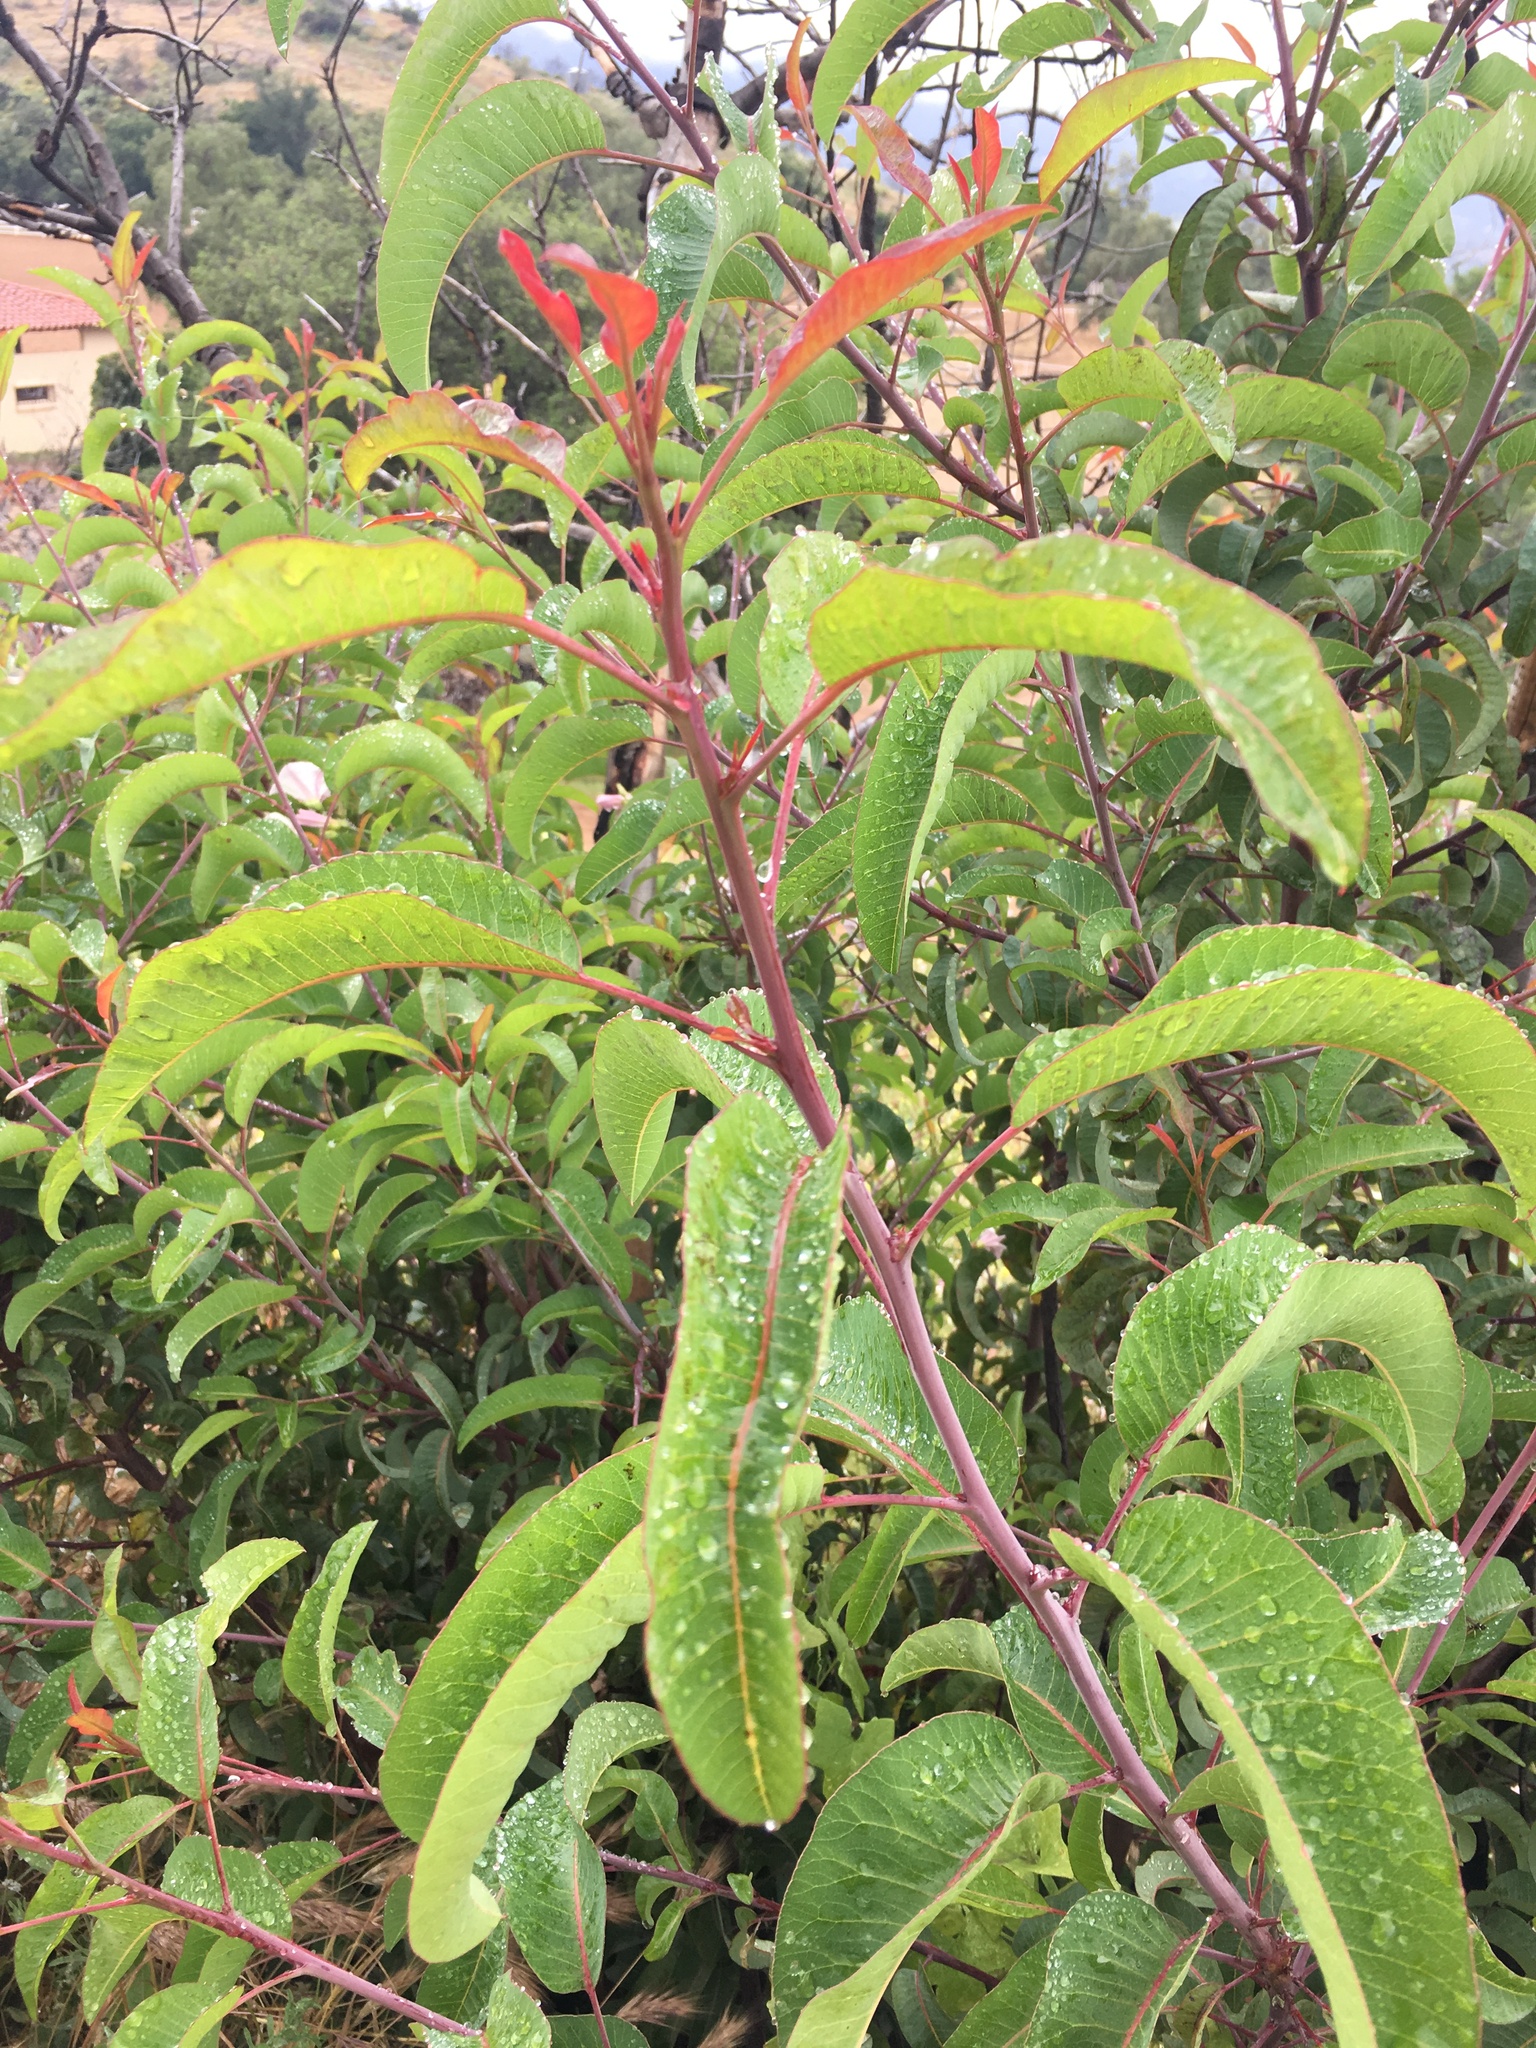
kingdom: Plantae
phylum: Tracheophyta
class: Magnoliopsida
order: Sapindales
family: Anacardiaceae
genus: Malosma
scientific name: Malosma laurina
